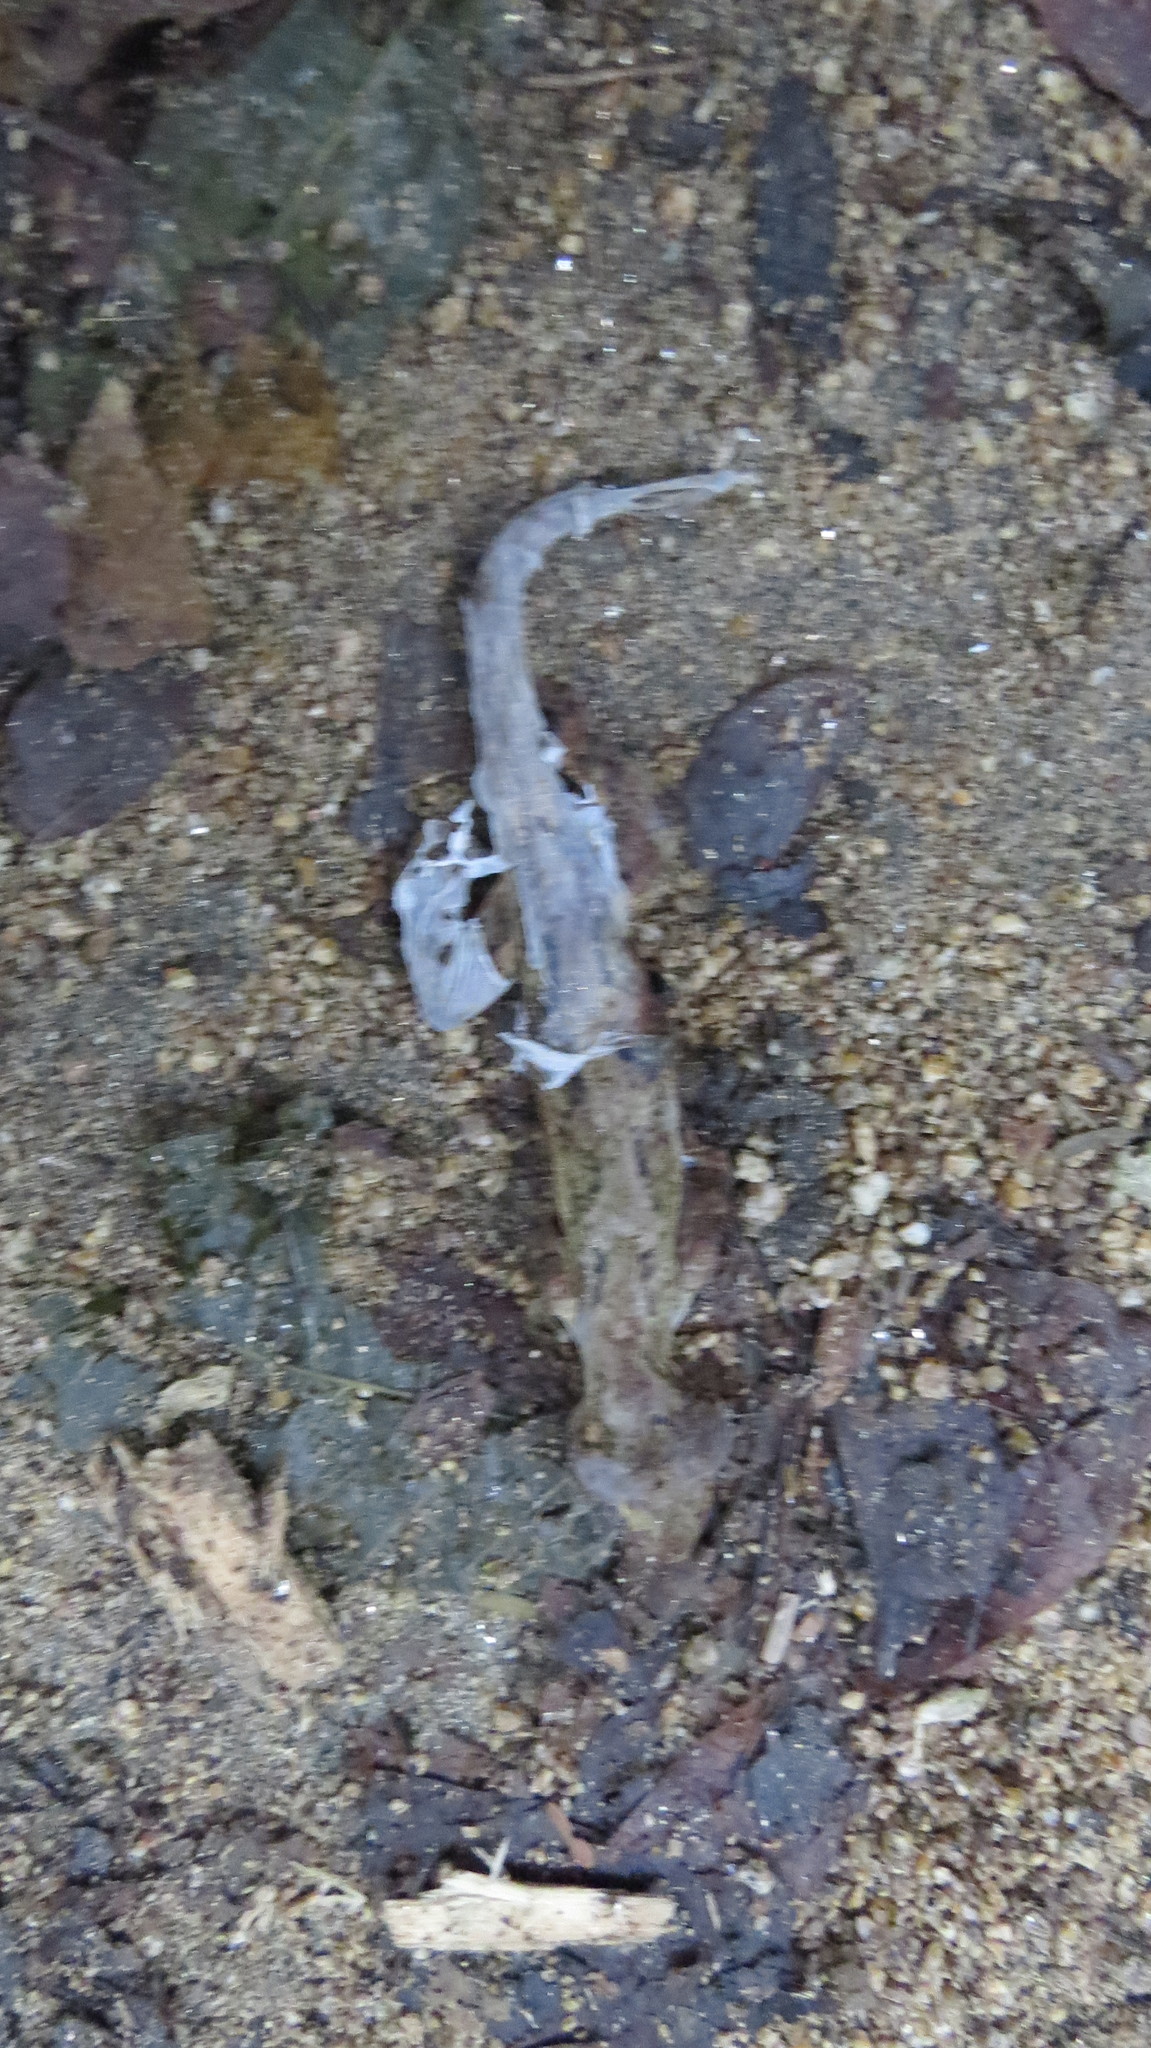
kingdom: Animalia
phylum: Chordata
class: Squamata
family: Phyllodactylidae
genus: Thecadactylus
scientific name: Thecadactylus rapicauda
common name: Turnip-tailed gecko
